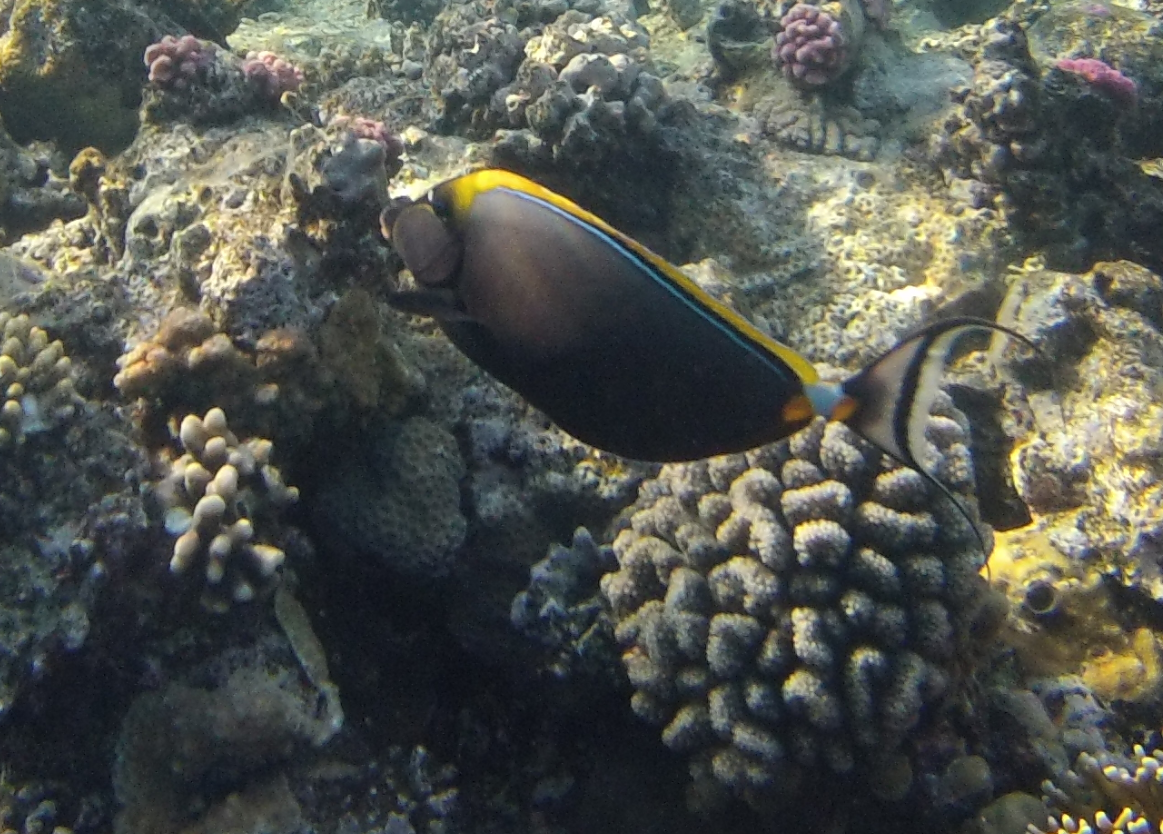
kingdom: Animalia
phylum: Chordata
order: Perciformes
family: Acanthuridae
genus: Naso
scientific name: Naso elegans
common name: Orangespine unicornfish
